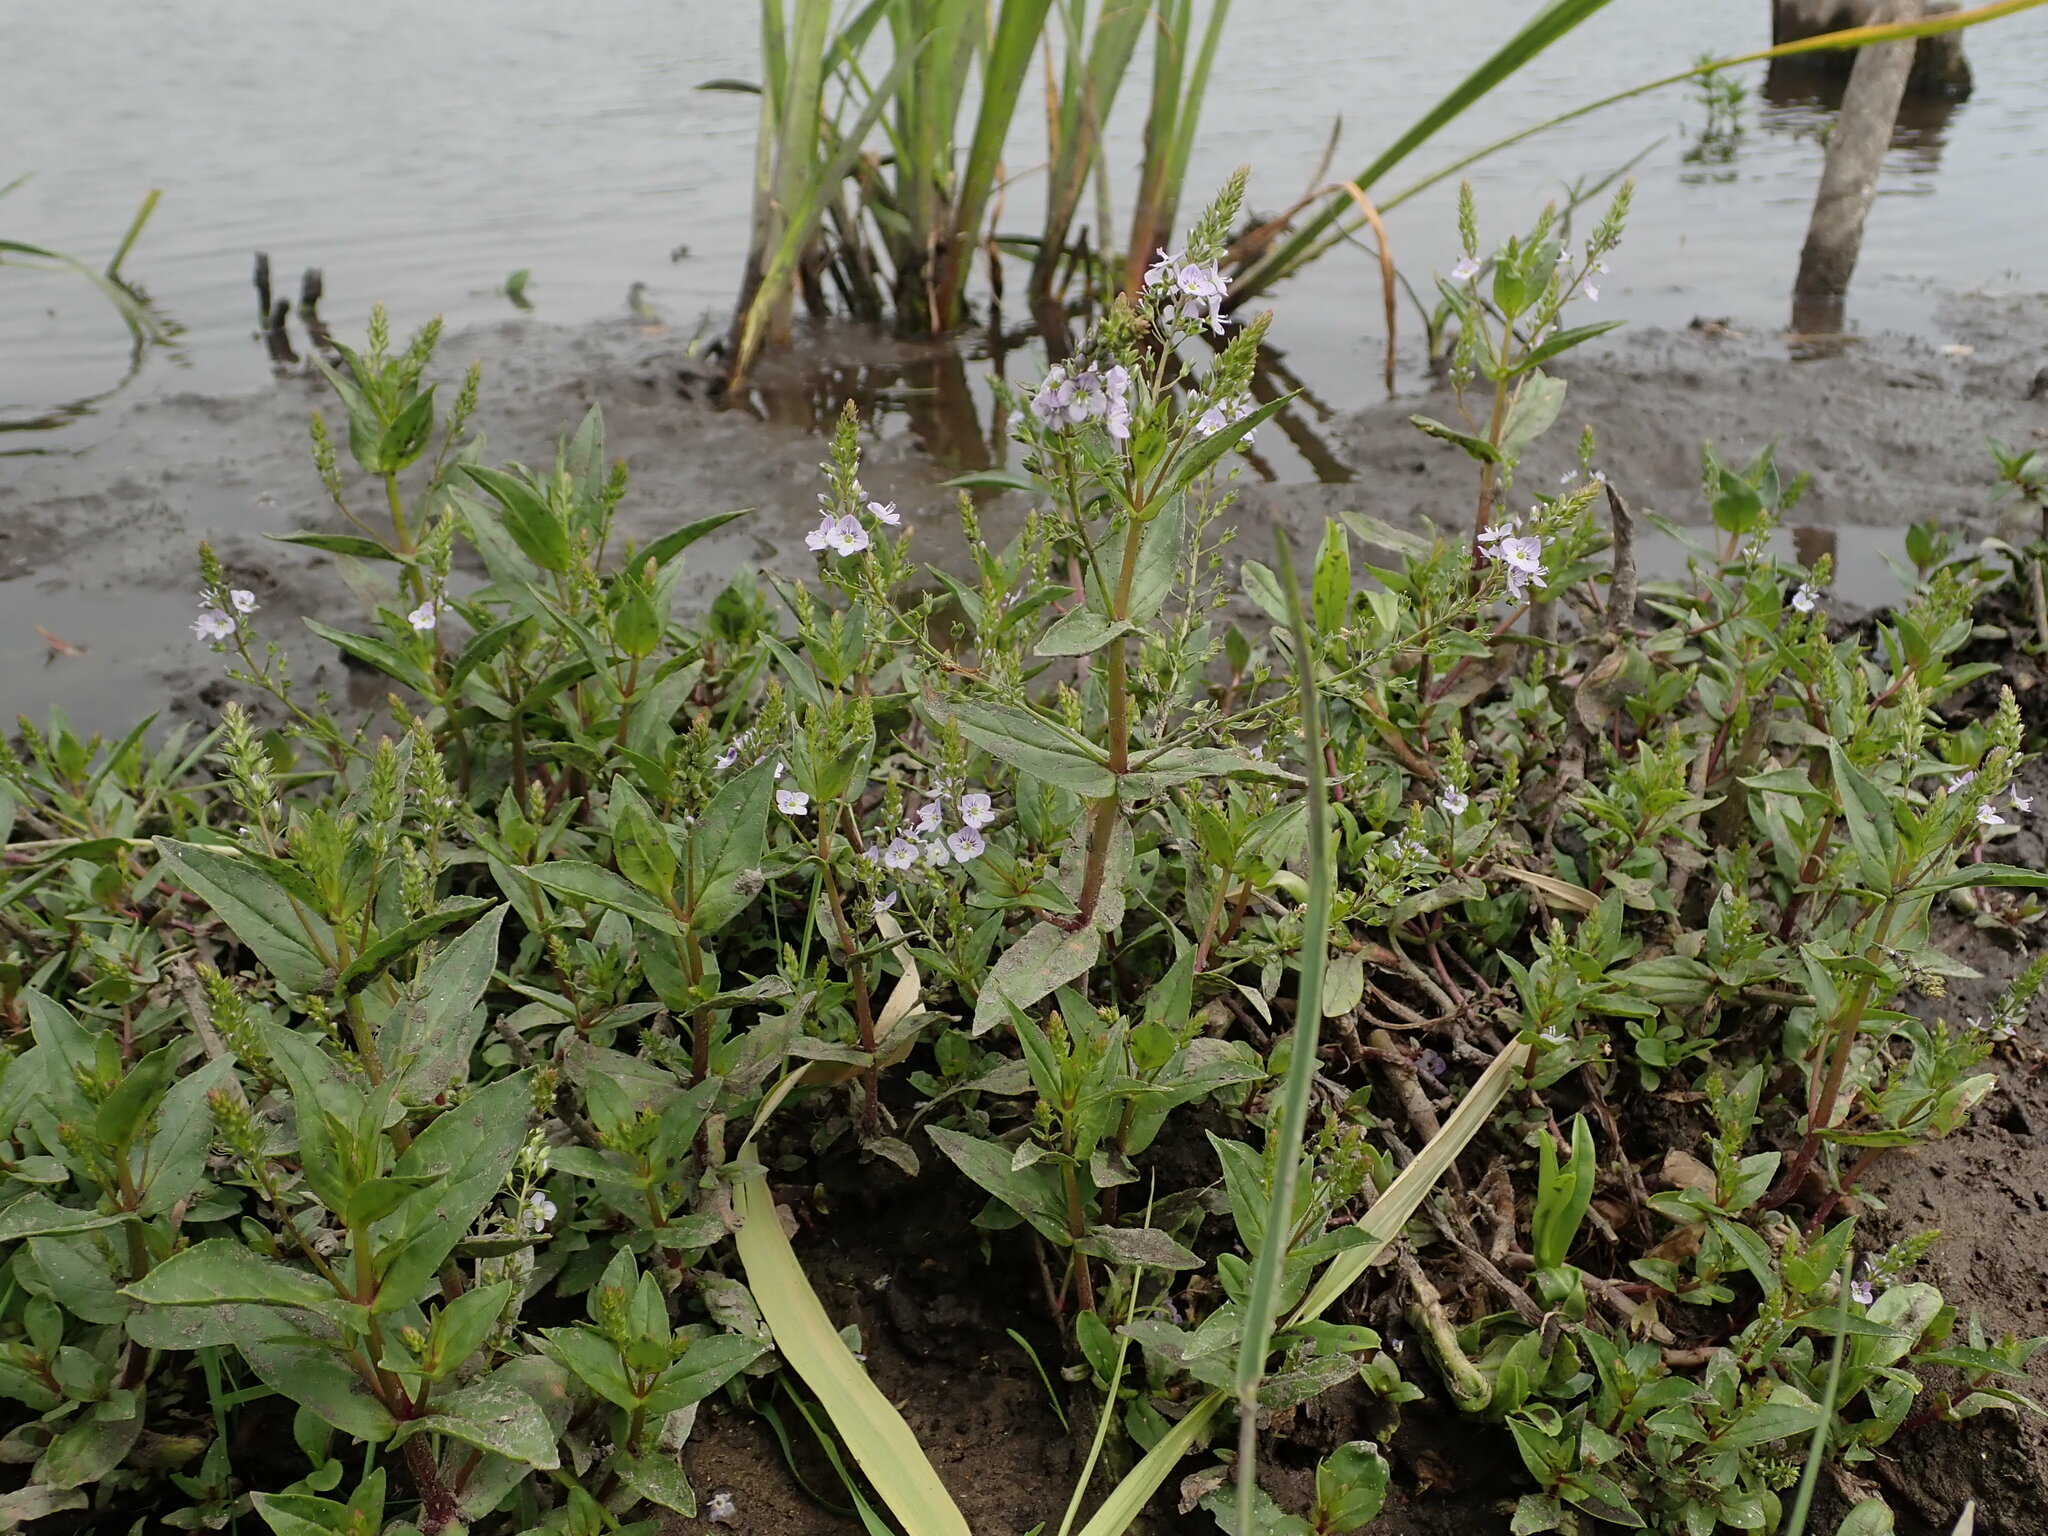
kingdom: Plantae
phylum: Tracheophyta
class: Magnoliopsida
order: Lamiales
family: Plantaginaceae
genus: Veronica
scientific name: Veronica anagallis-aquatica
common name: Water speedwell
